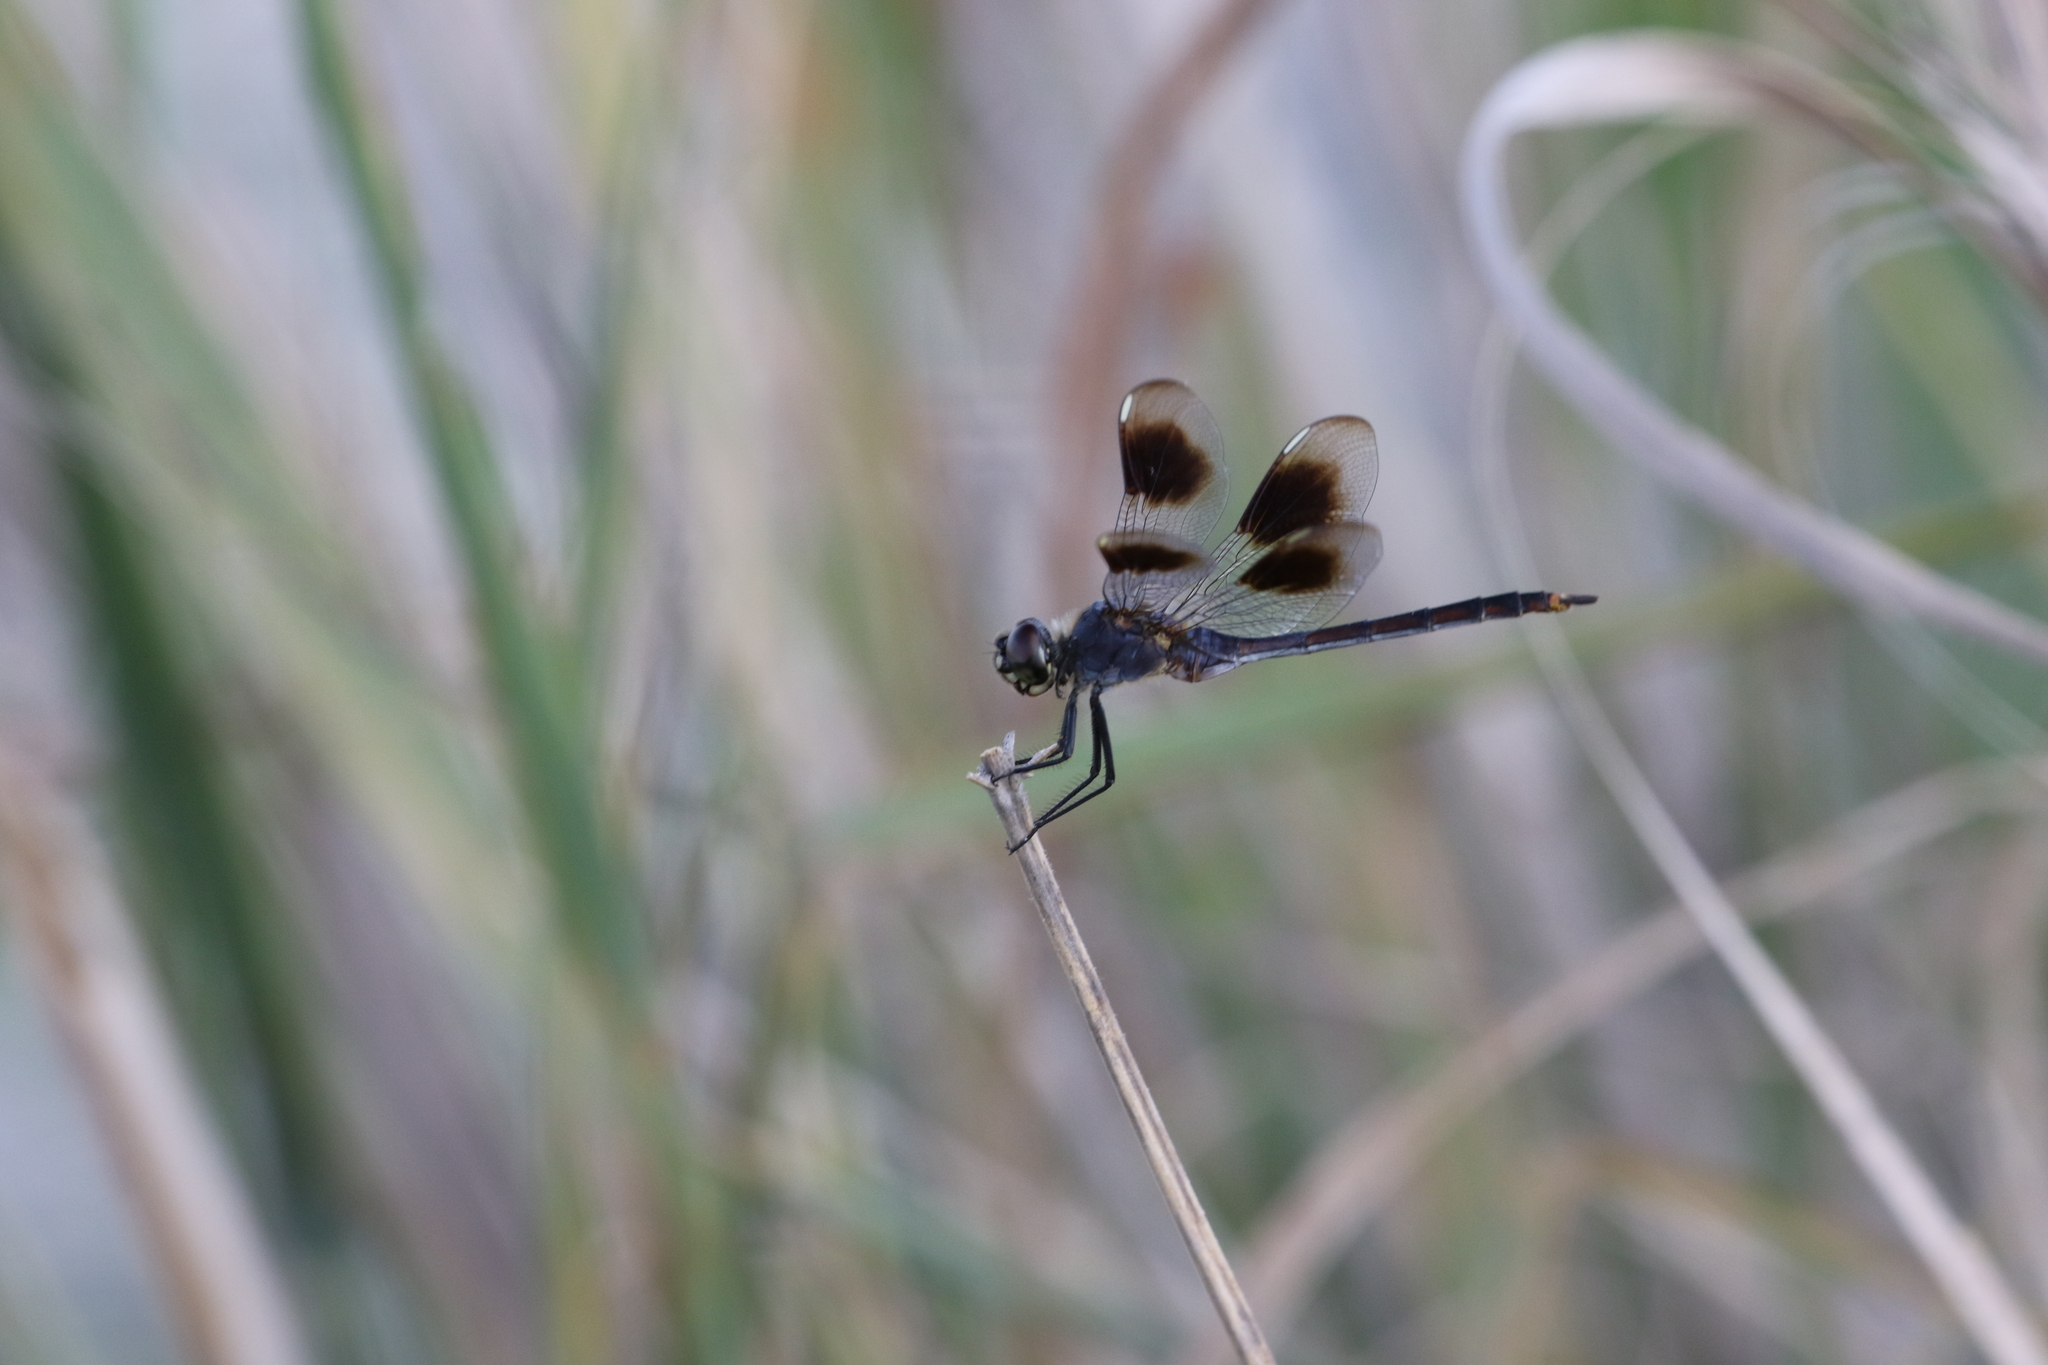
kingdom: Animalia
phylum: Arthropoda
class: Insecta
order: Odonata
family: Libellulidae
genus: Brachymesia
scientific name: Brachymesia gravida
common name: Four-spotted pennant
